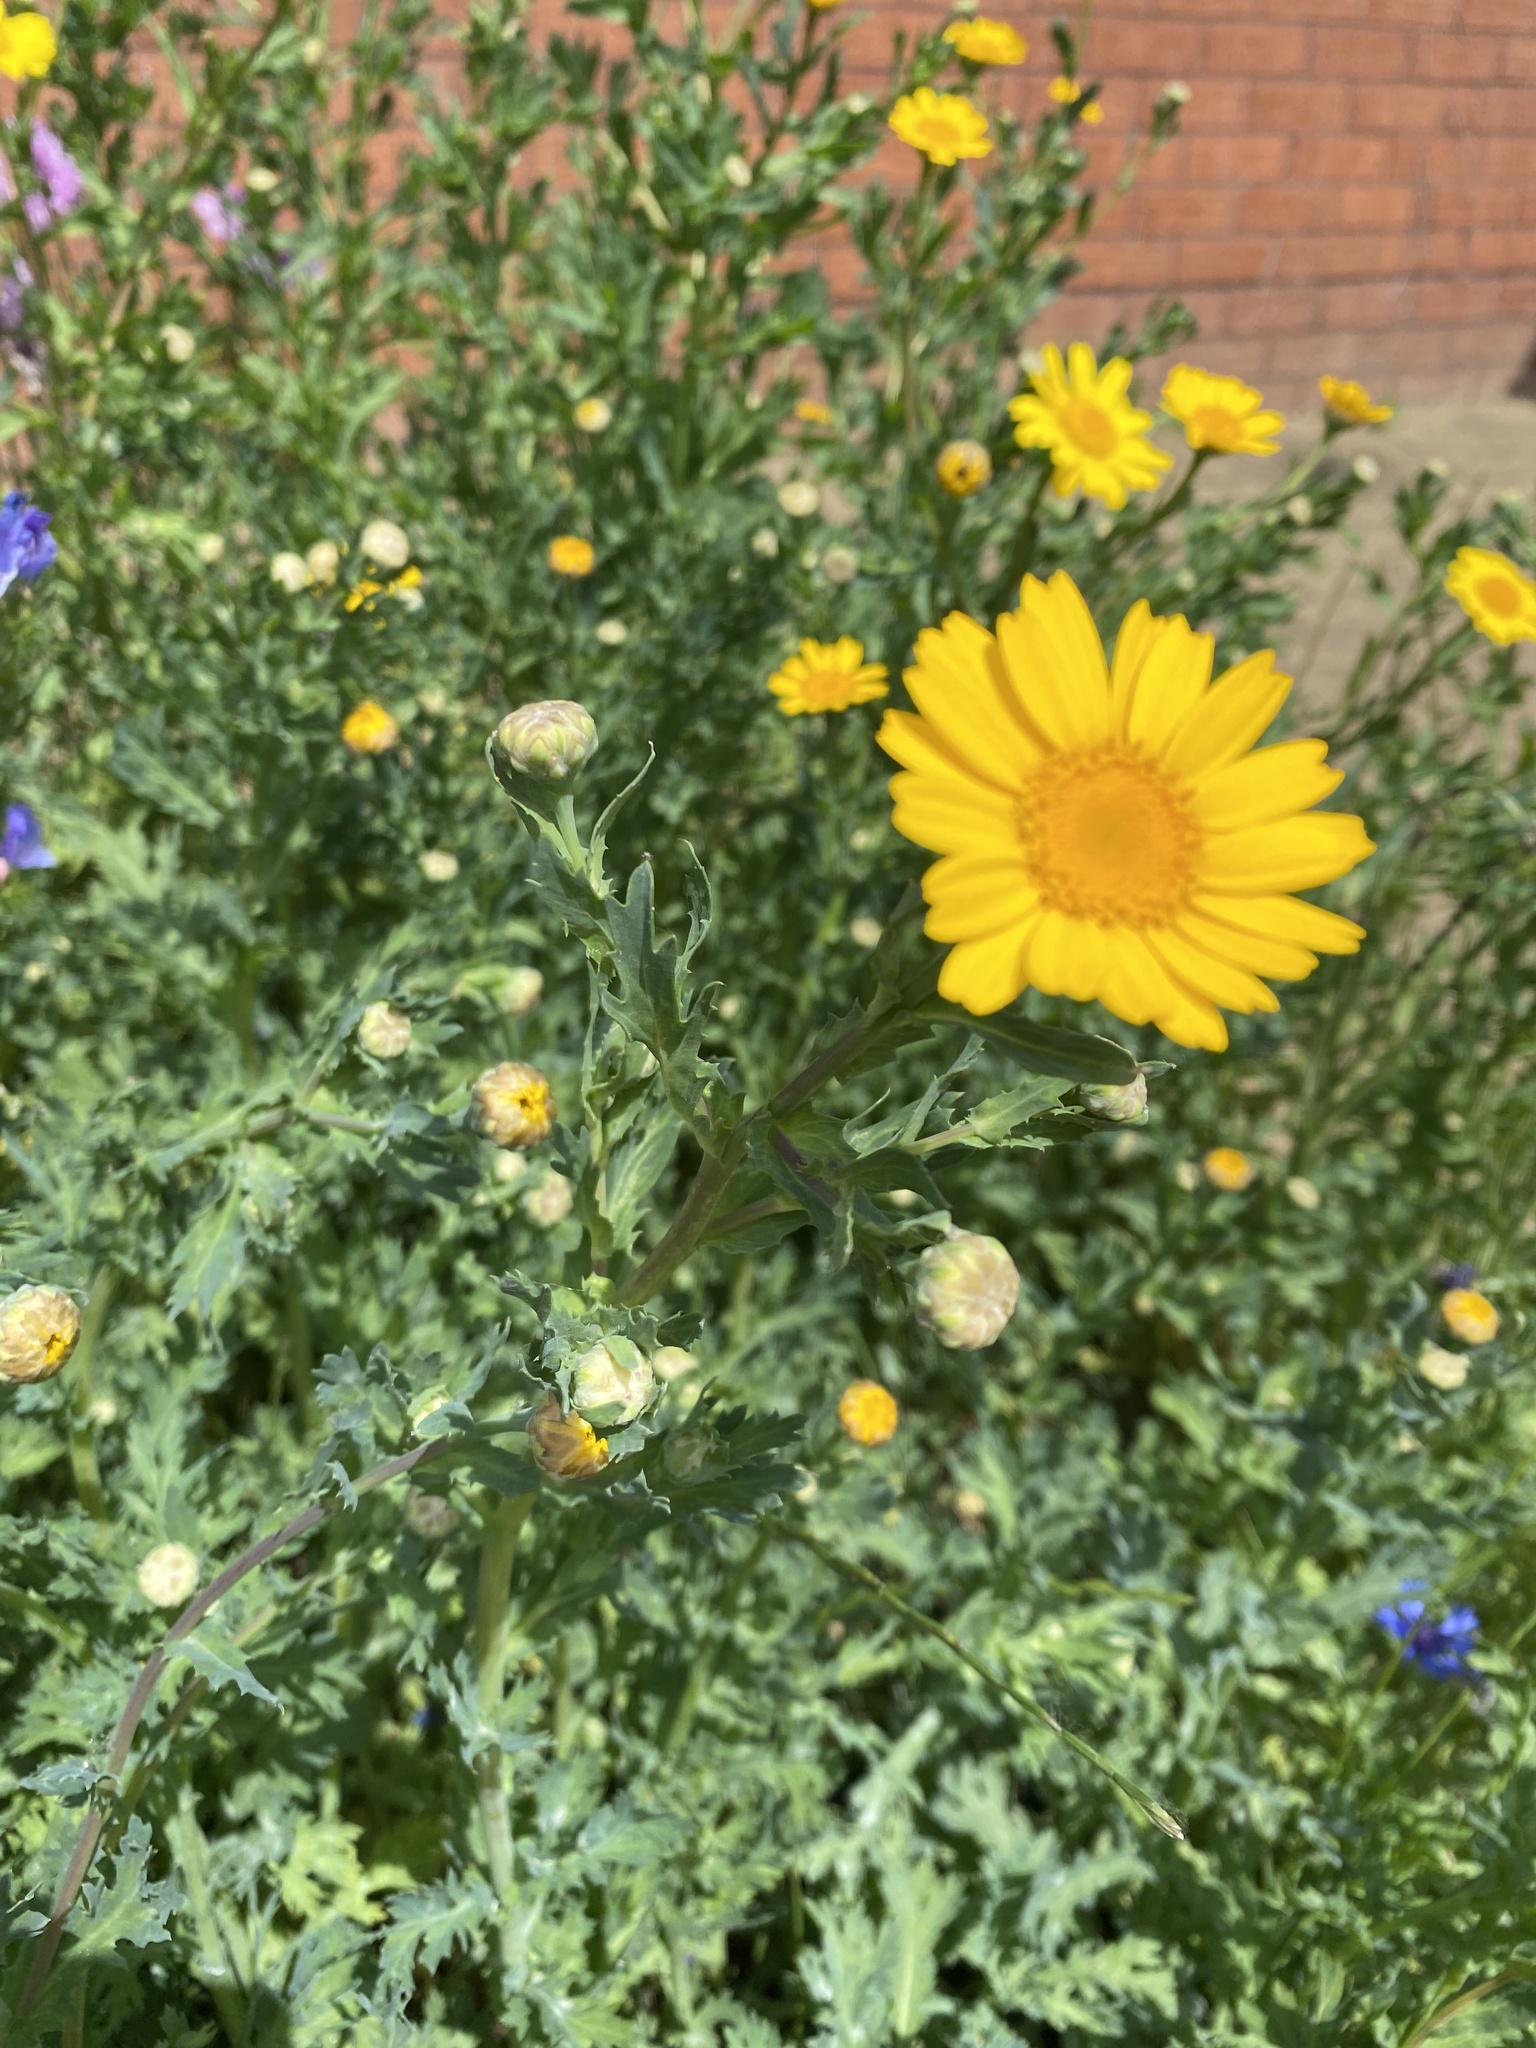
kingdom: Plantae
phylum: Tracheophyta
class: Magnoliopsida
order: Asterales
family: Asteraceae
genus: Glebionis
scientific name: Glebionis segetum
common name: Corndaisy
